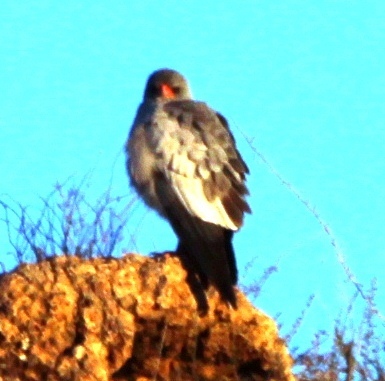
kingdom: Animalia
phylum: Chordata
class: Aves
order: Accipitriformes
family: Accipitridae
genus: Melierax
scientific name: Melierax canorus
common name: Pale chanting-goshawk
